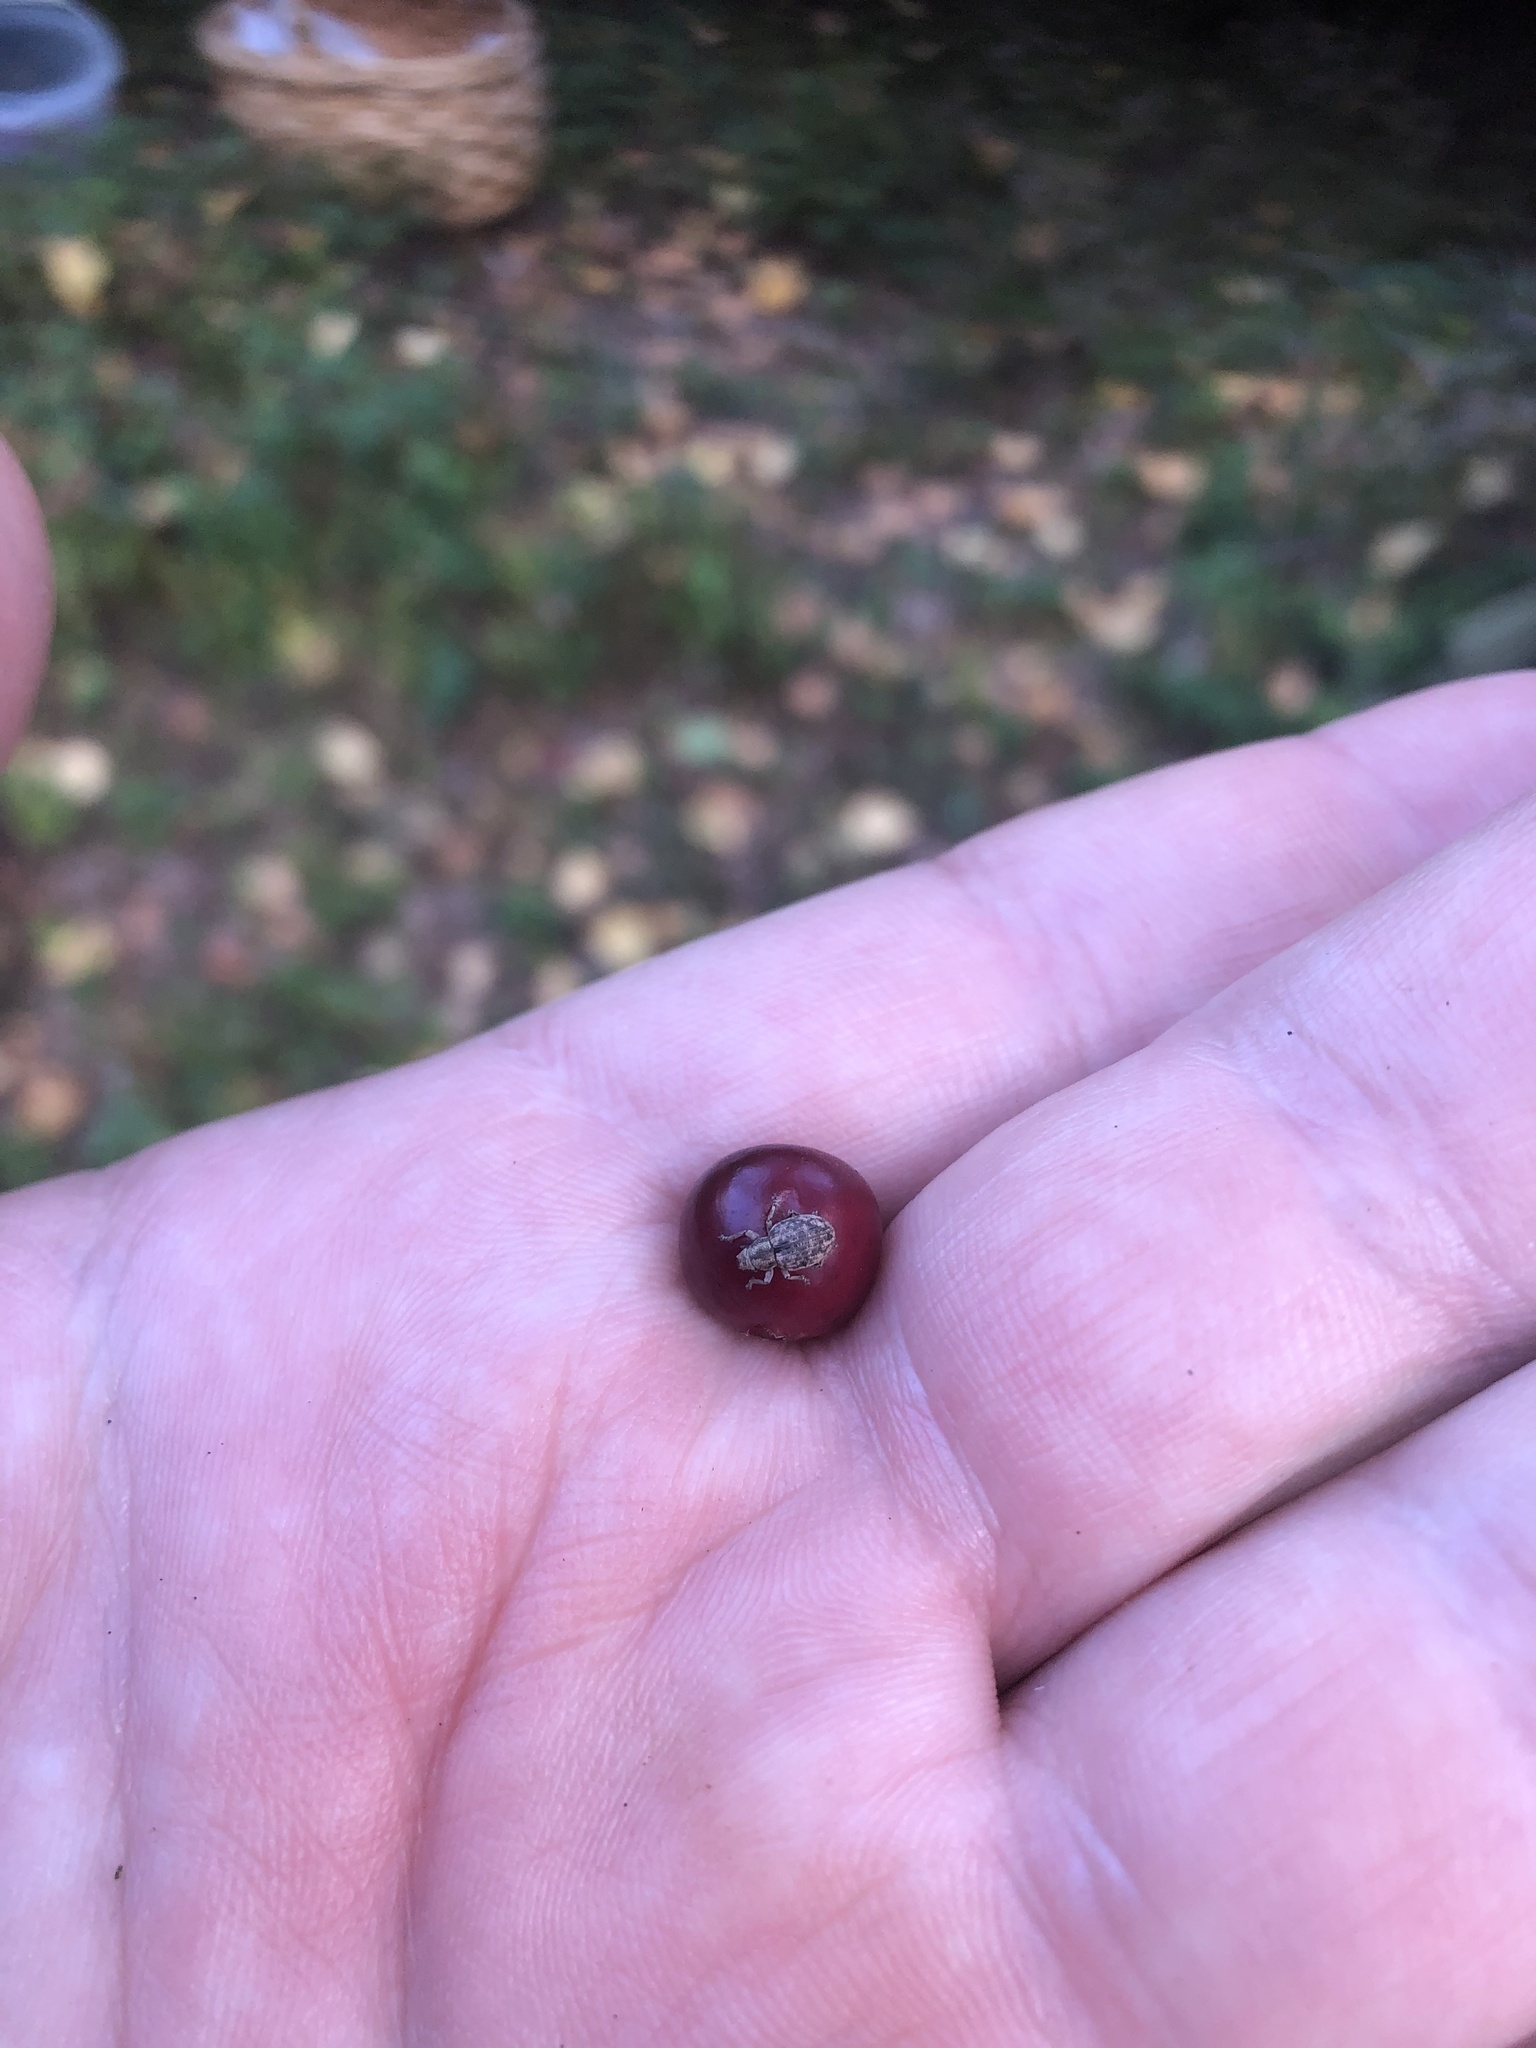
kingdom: Animalia
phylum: Arthropoda
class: Insecta
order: Coleoptera
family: Curculionidae
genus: Strophosoma
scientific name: Strophosoma capitatum
